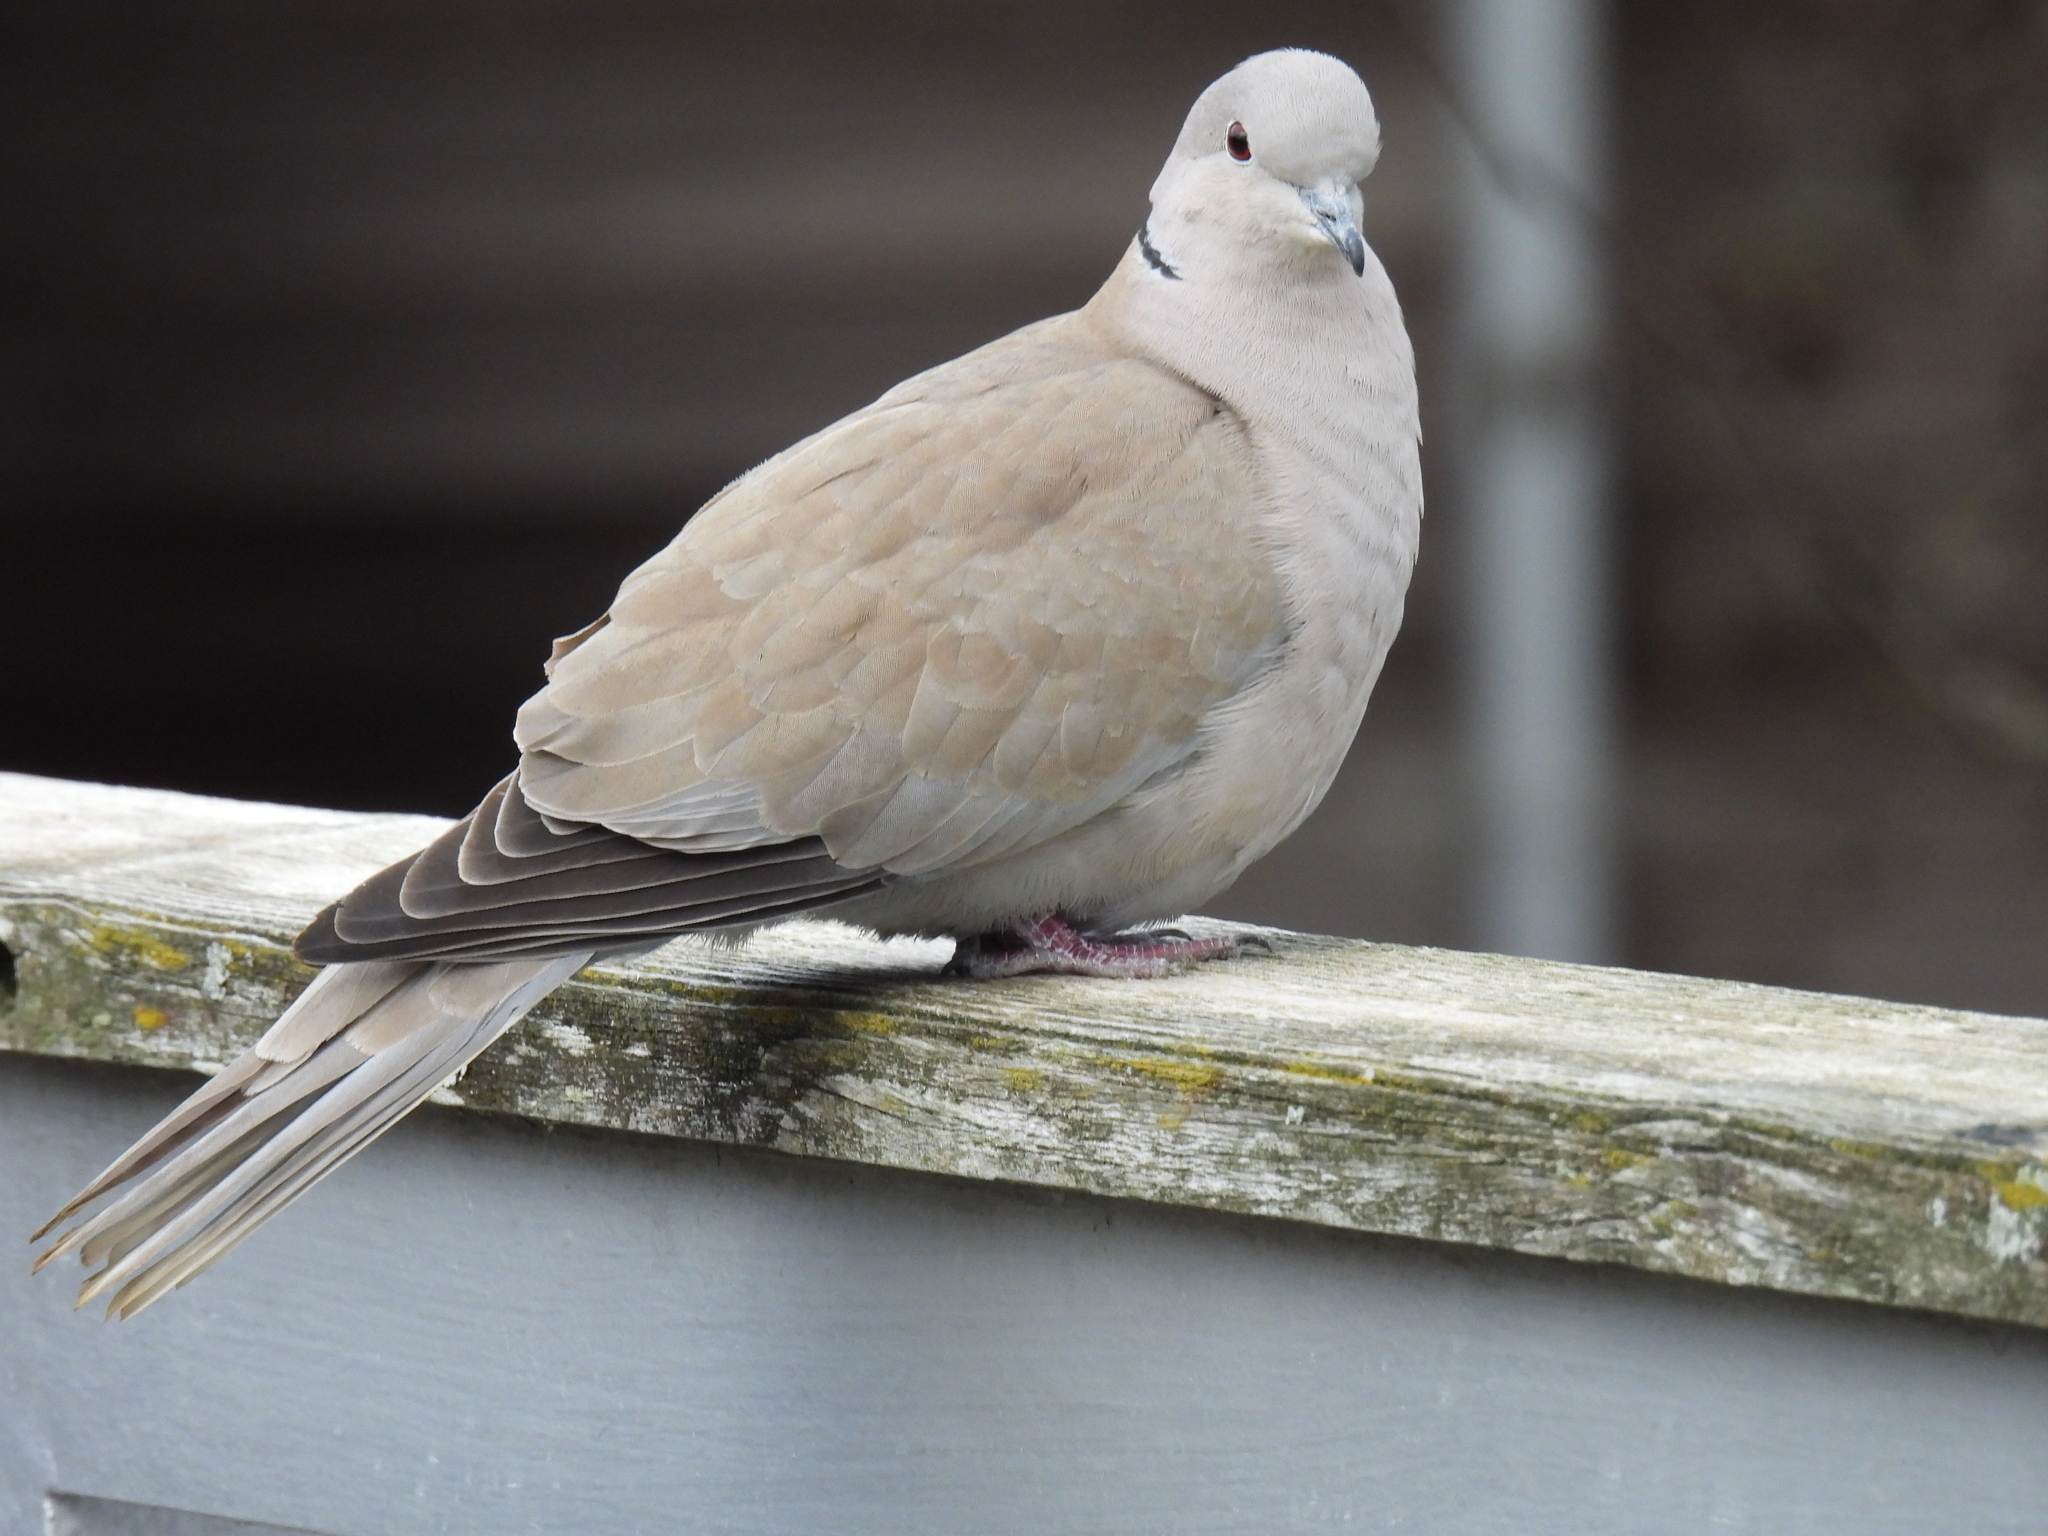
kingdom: Animalia
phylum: Chordata
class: Aves
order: Columbiformes
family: Columbidae
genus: Streptopelia
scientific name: Streptopelia decaocto
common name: Eurasian collared dove
